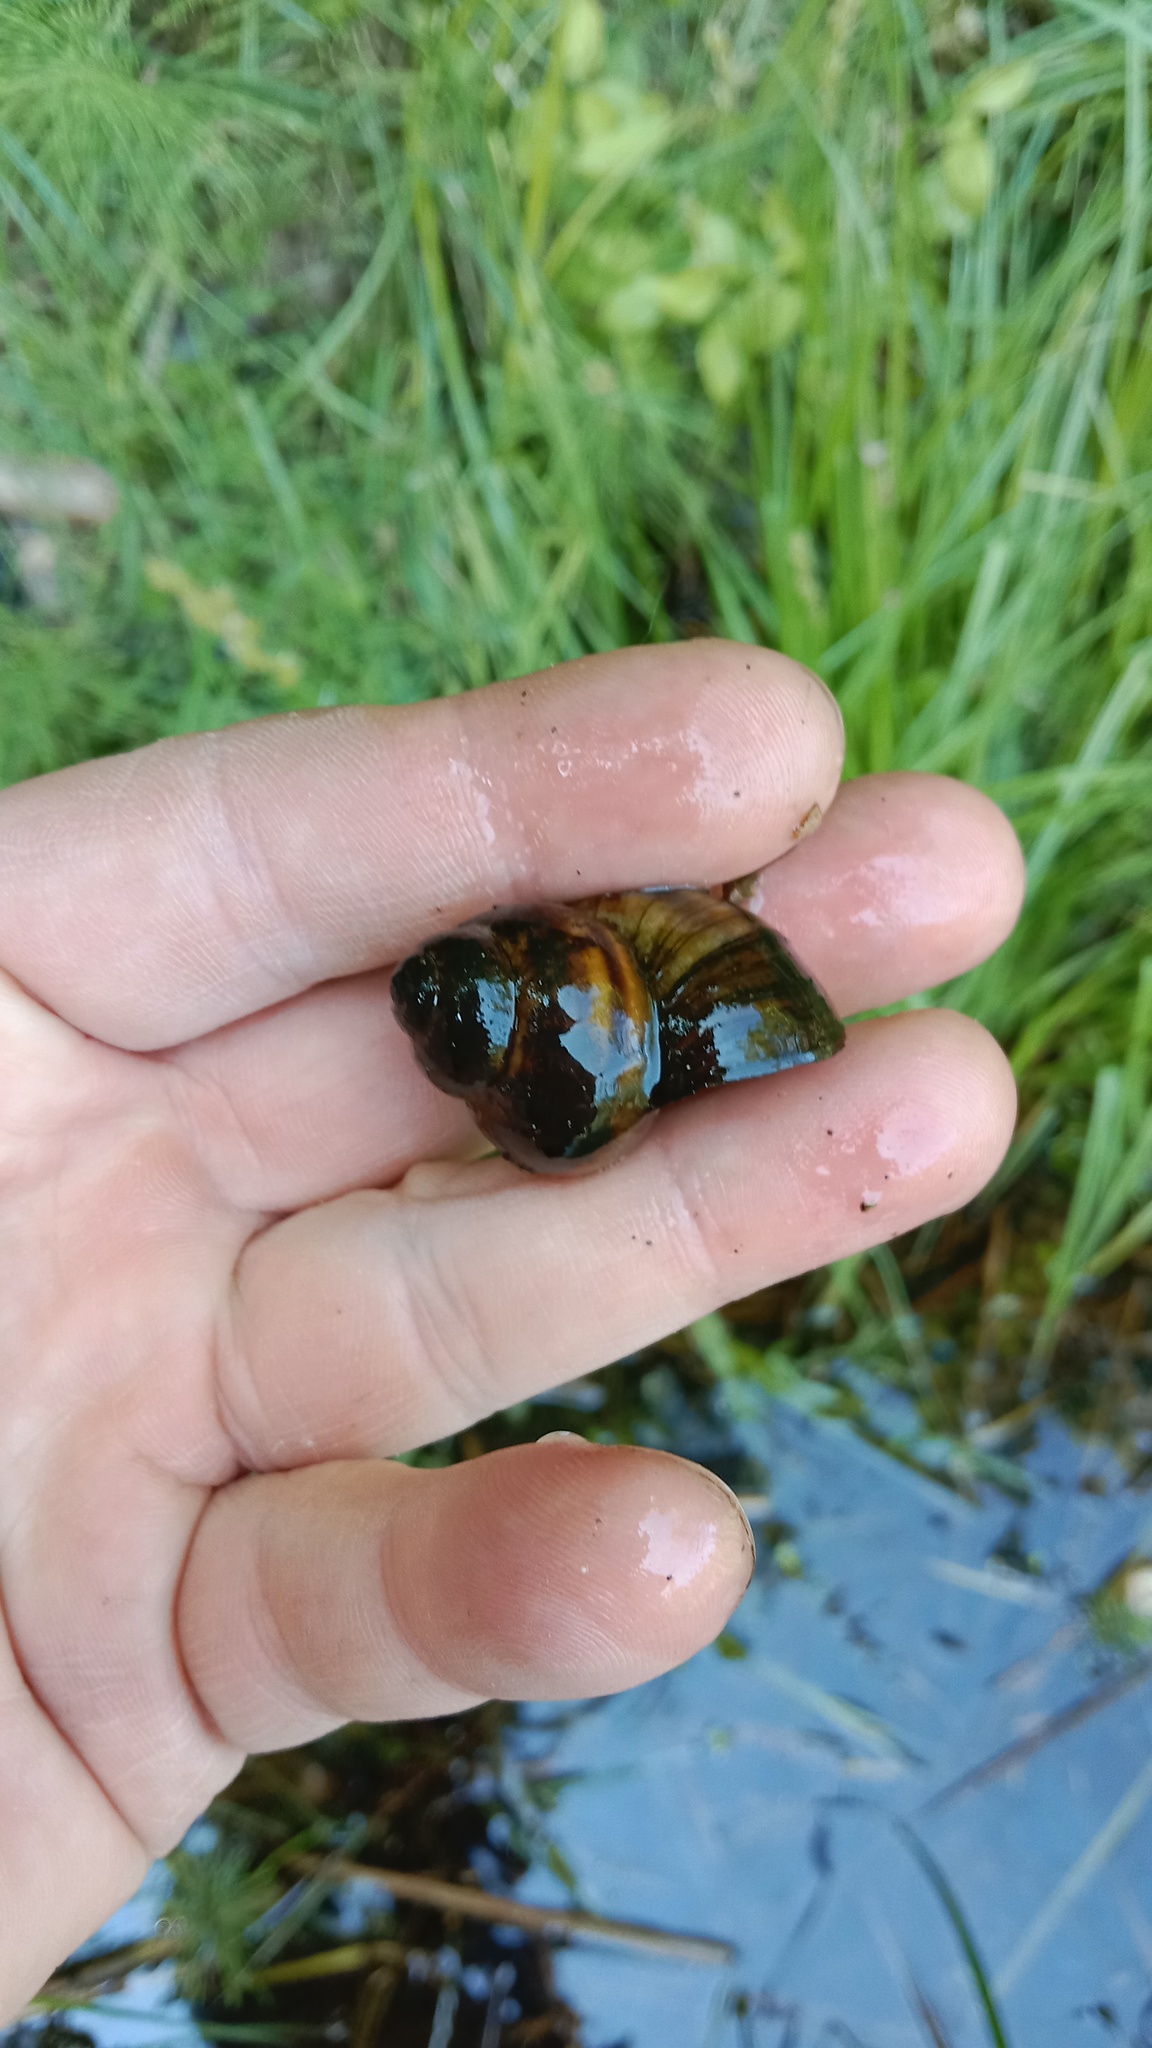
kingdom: Animalia
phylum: Mollusca
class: Gastropoda
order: Architaenioglossa
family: Viviparidae
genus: Viviparus
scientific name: Viviparus viviparus
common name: River snail
